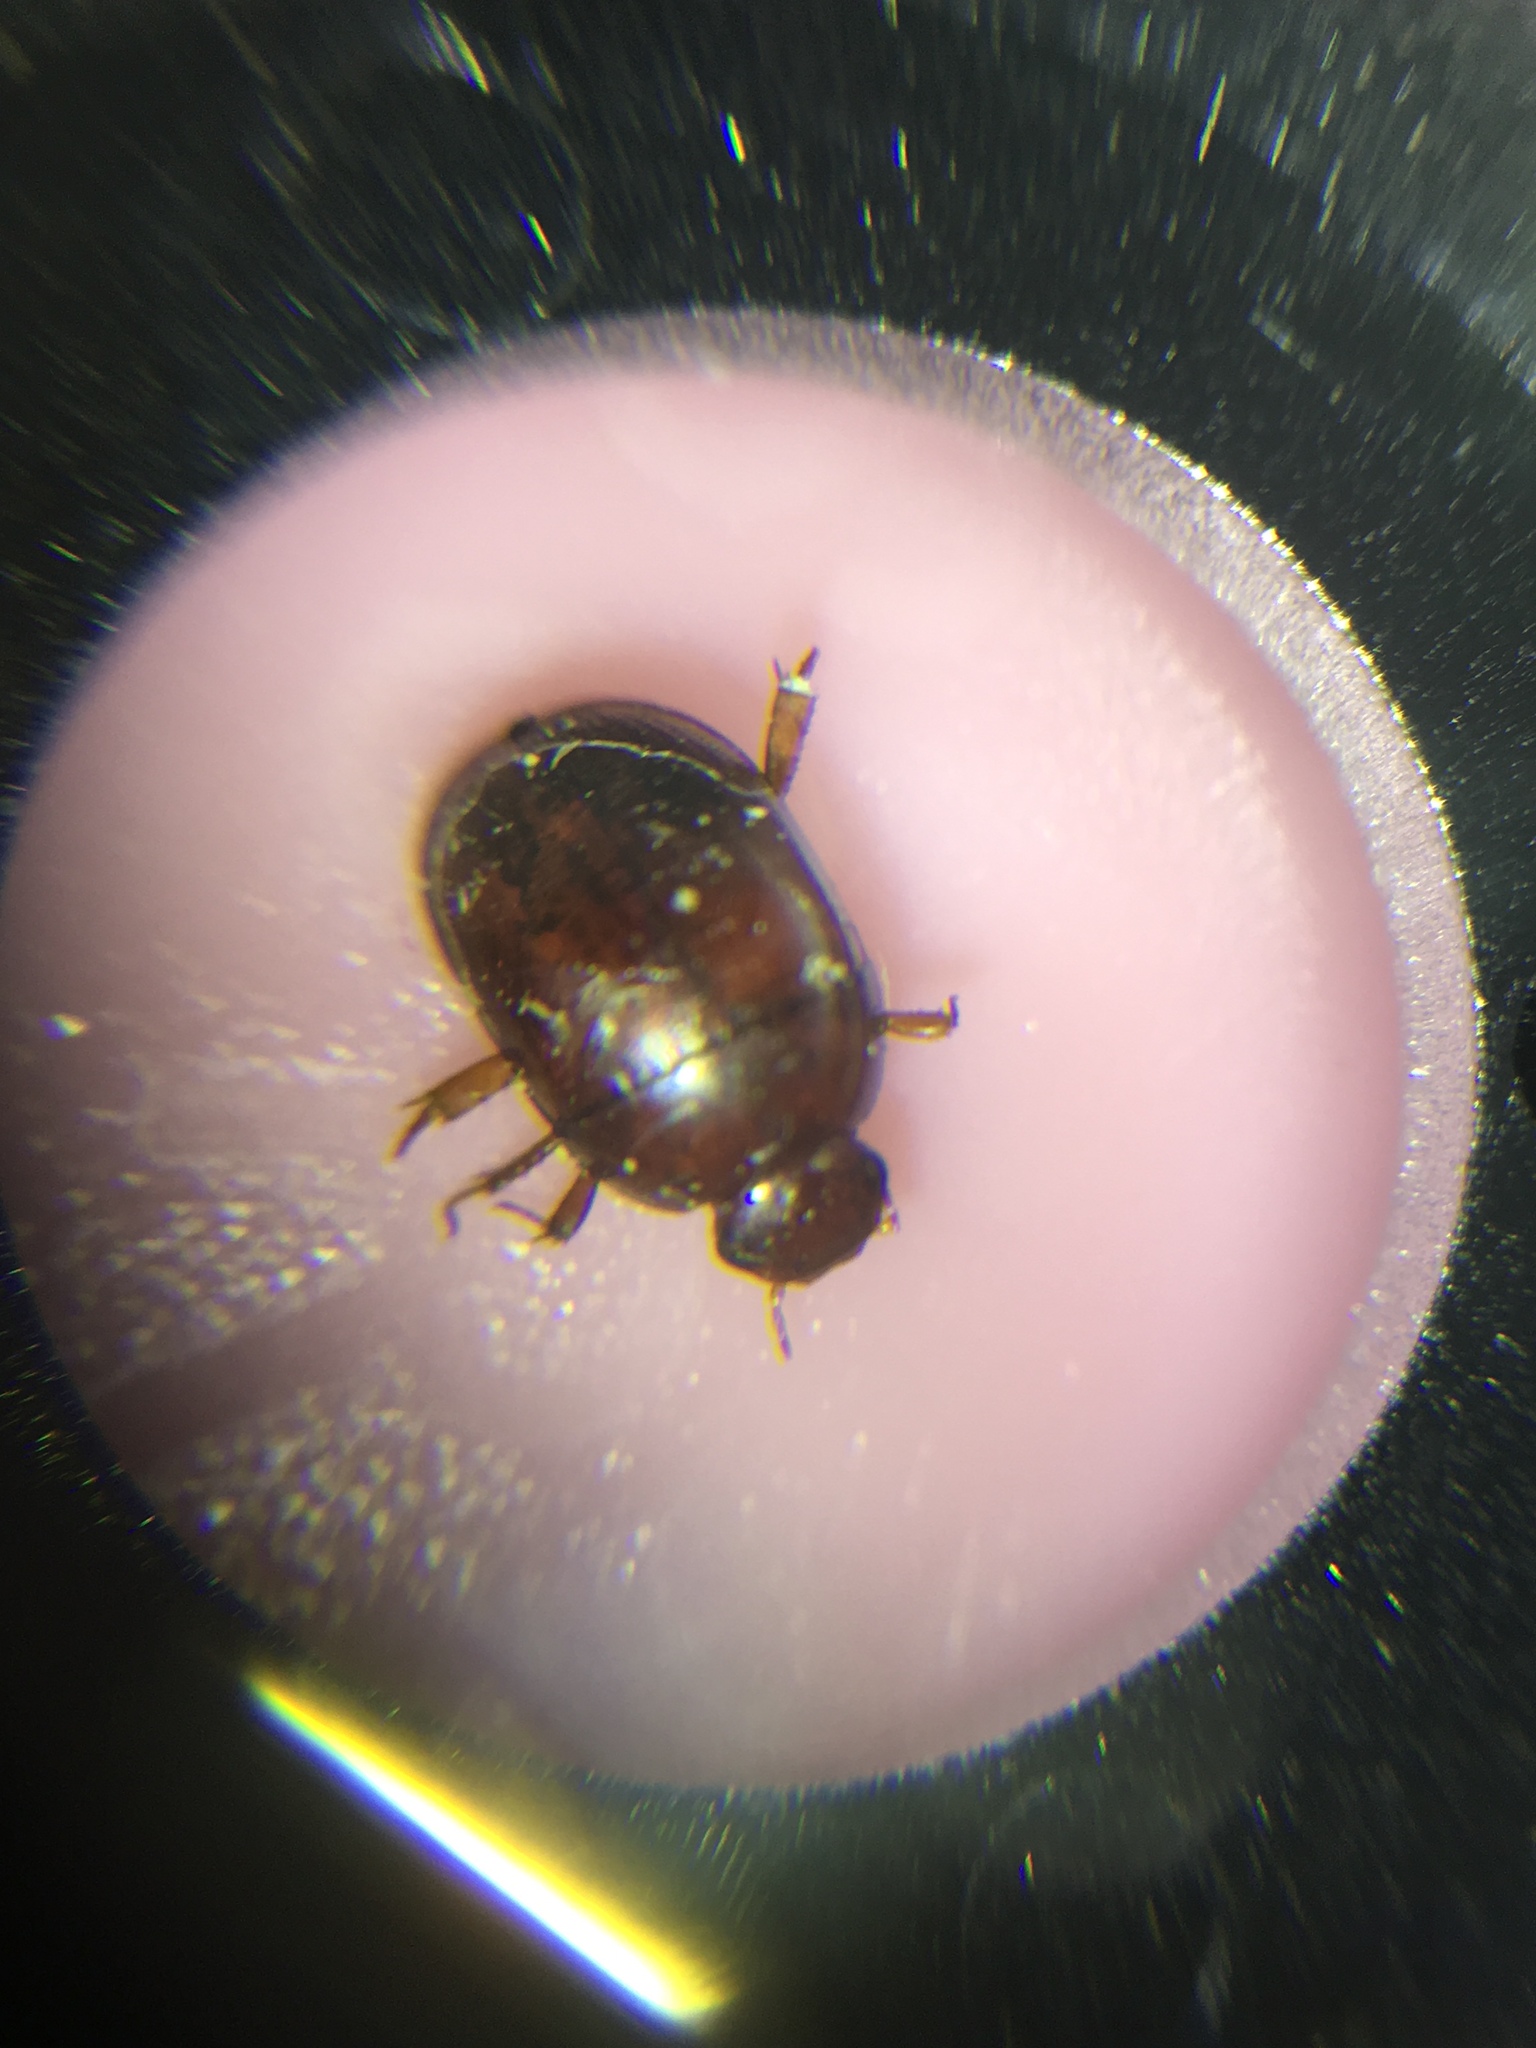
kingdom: Animalia
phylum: Arthropoda
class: Insecta
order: Coleoptera
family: Hydrophilidae
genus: Dactylosternum
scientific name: Dactylosternum abdominale
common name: Water scavenger beetle
